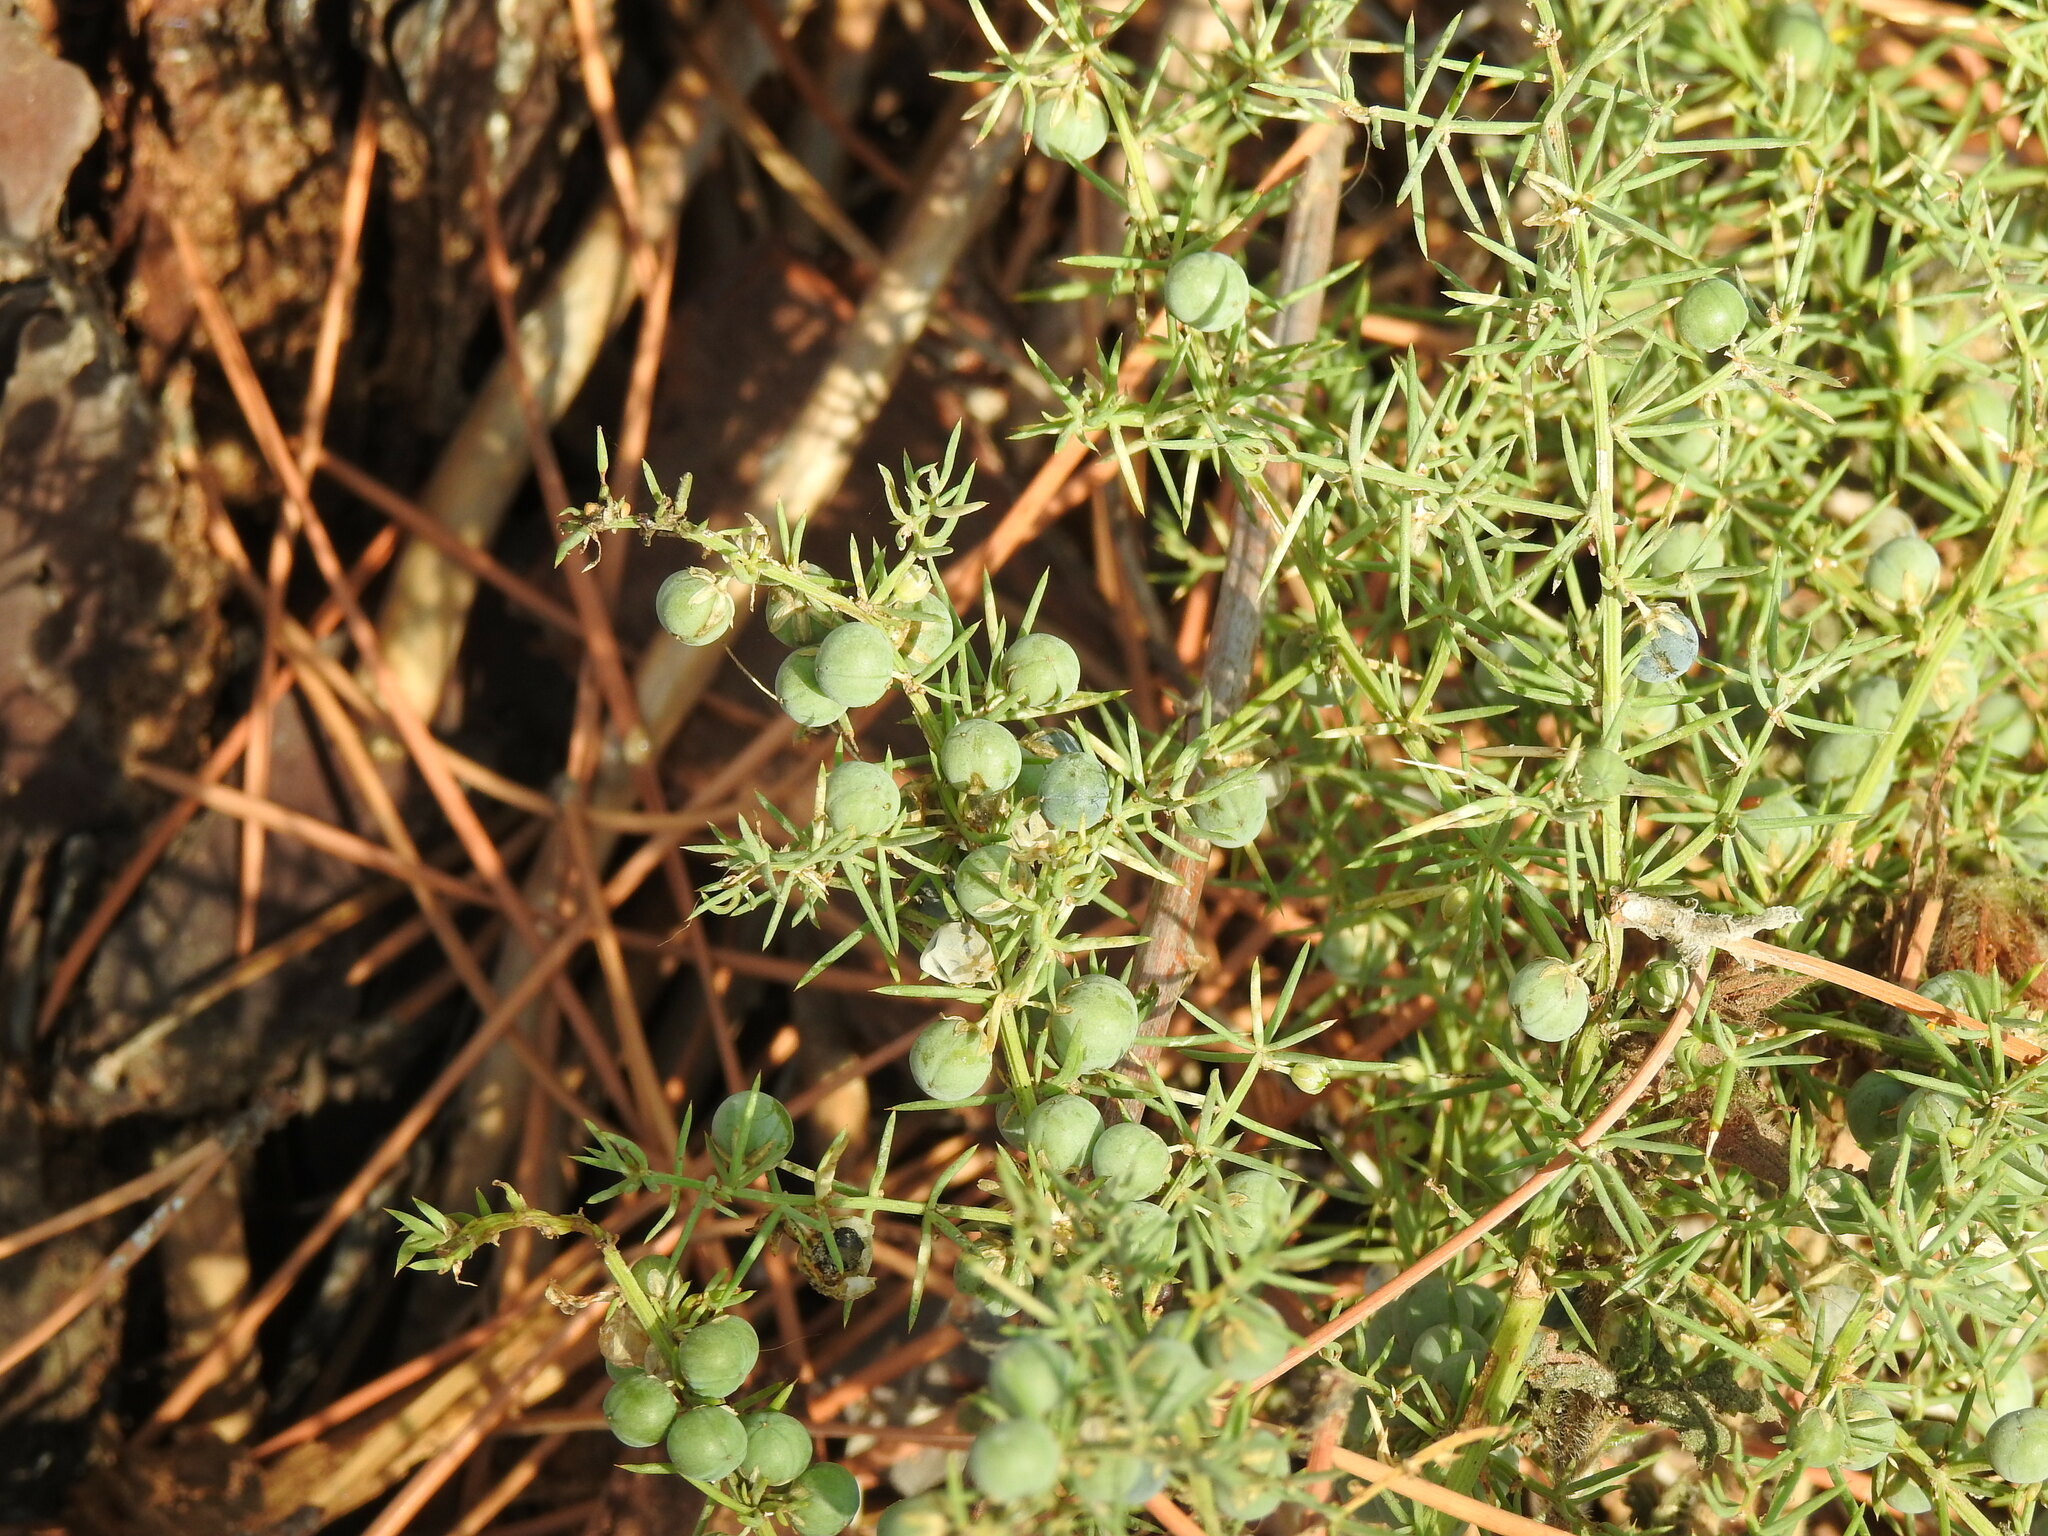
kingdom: Plantae
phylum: Tracheophyta
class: Liliopsida
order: Asparagales
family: Asparagaceae
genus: Asparagus
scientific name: Asparagus aphyllus
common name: Mediterranean asparagus
